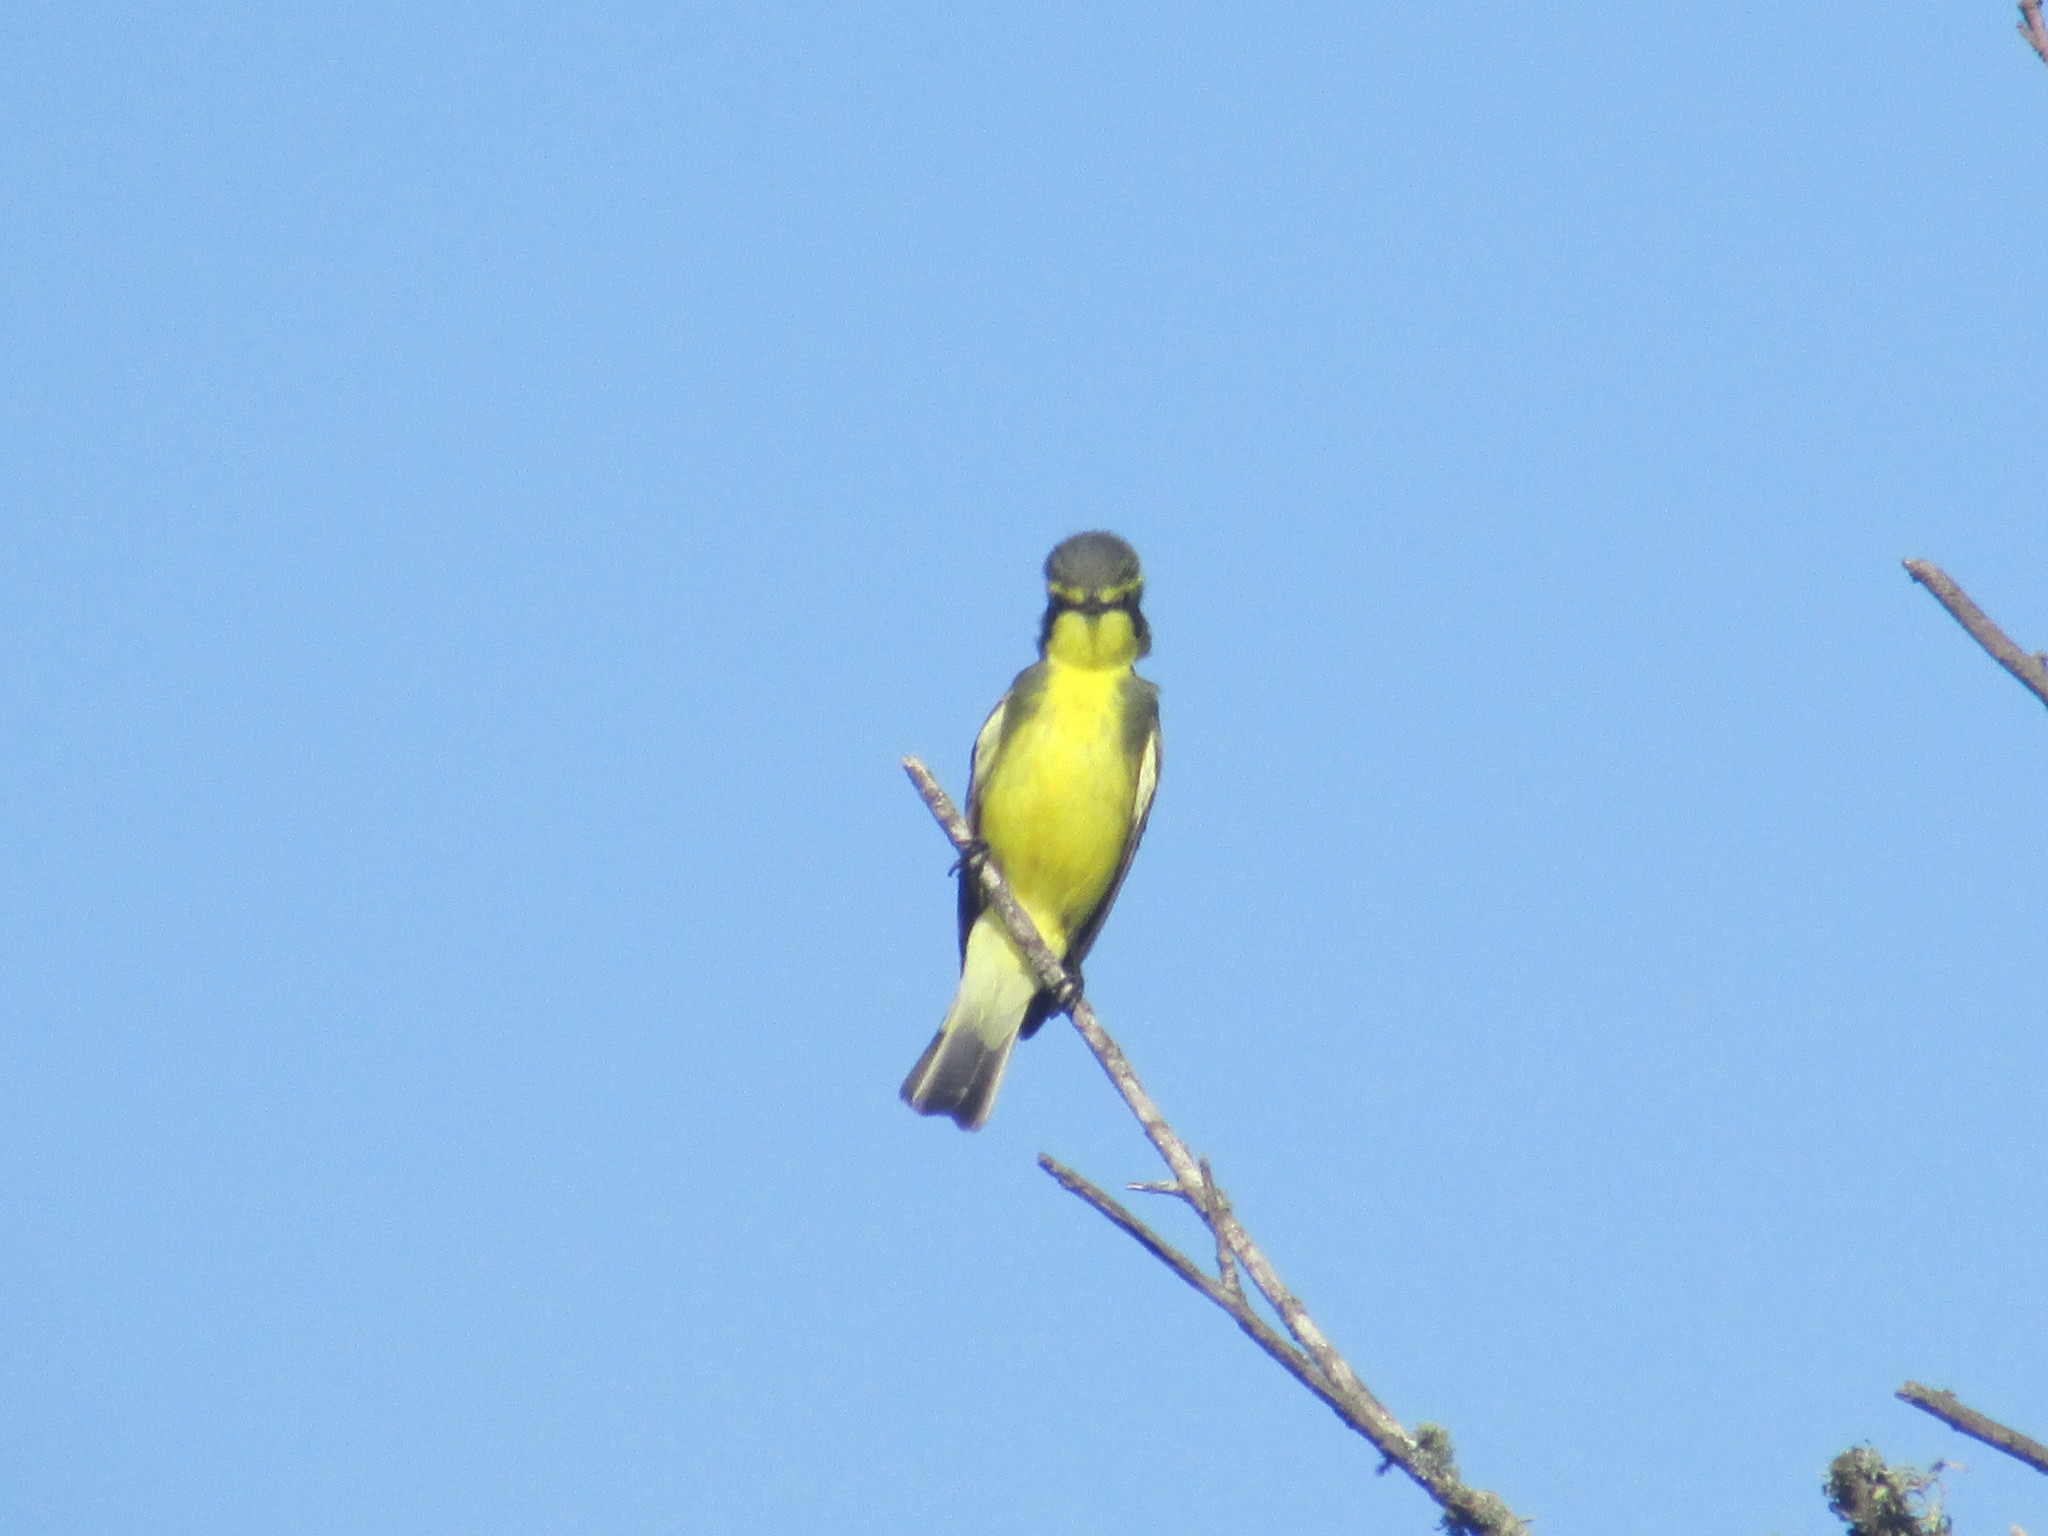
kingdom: Animalia
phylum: Chordata
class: Aves
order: Passeriformes
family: Tyrannidae
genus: Satrapa
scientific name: Satrapa icterophrys
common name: Yellow-browed tyrant
